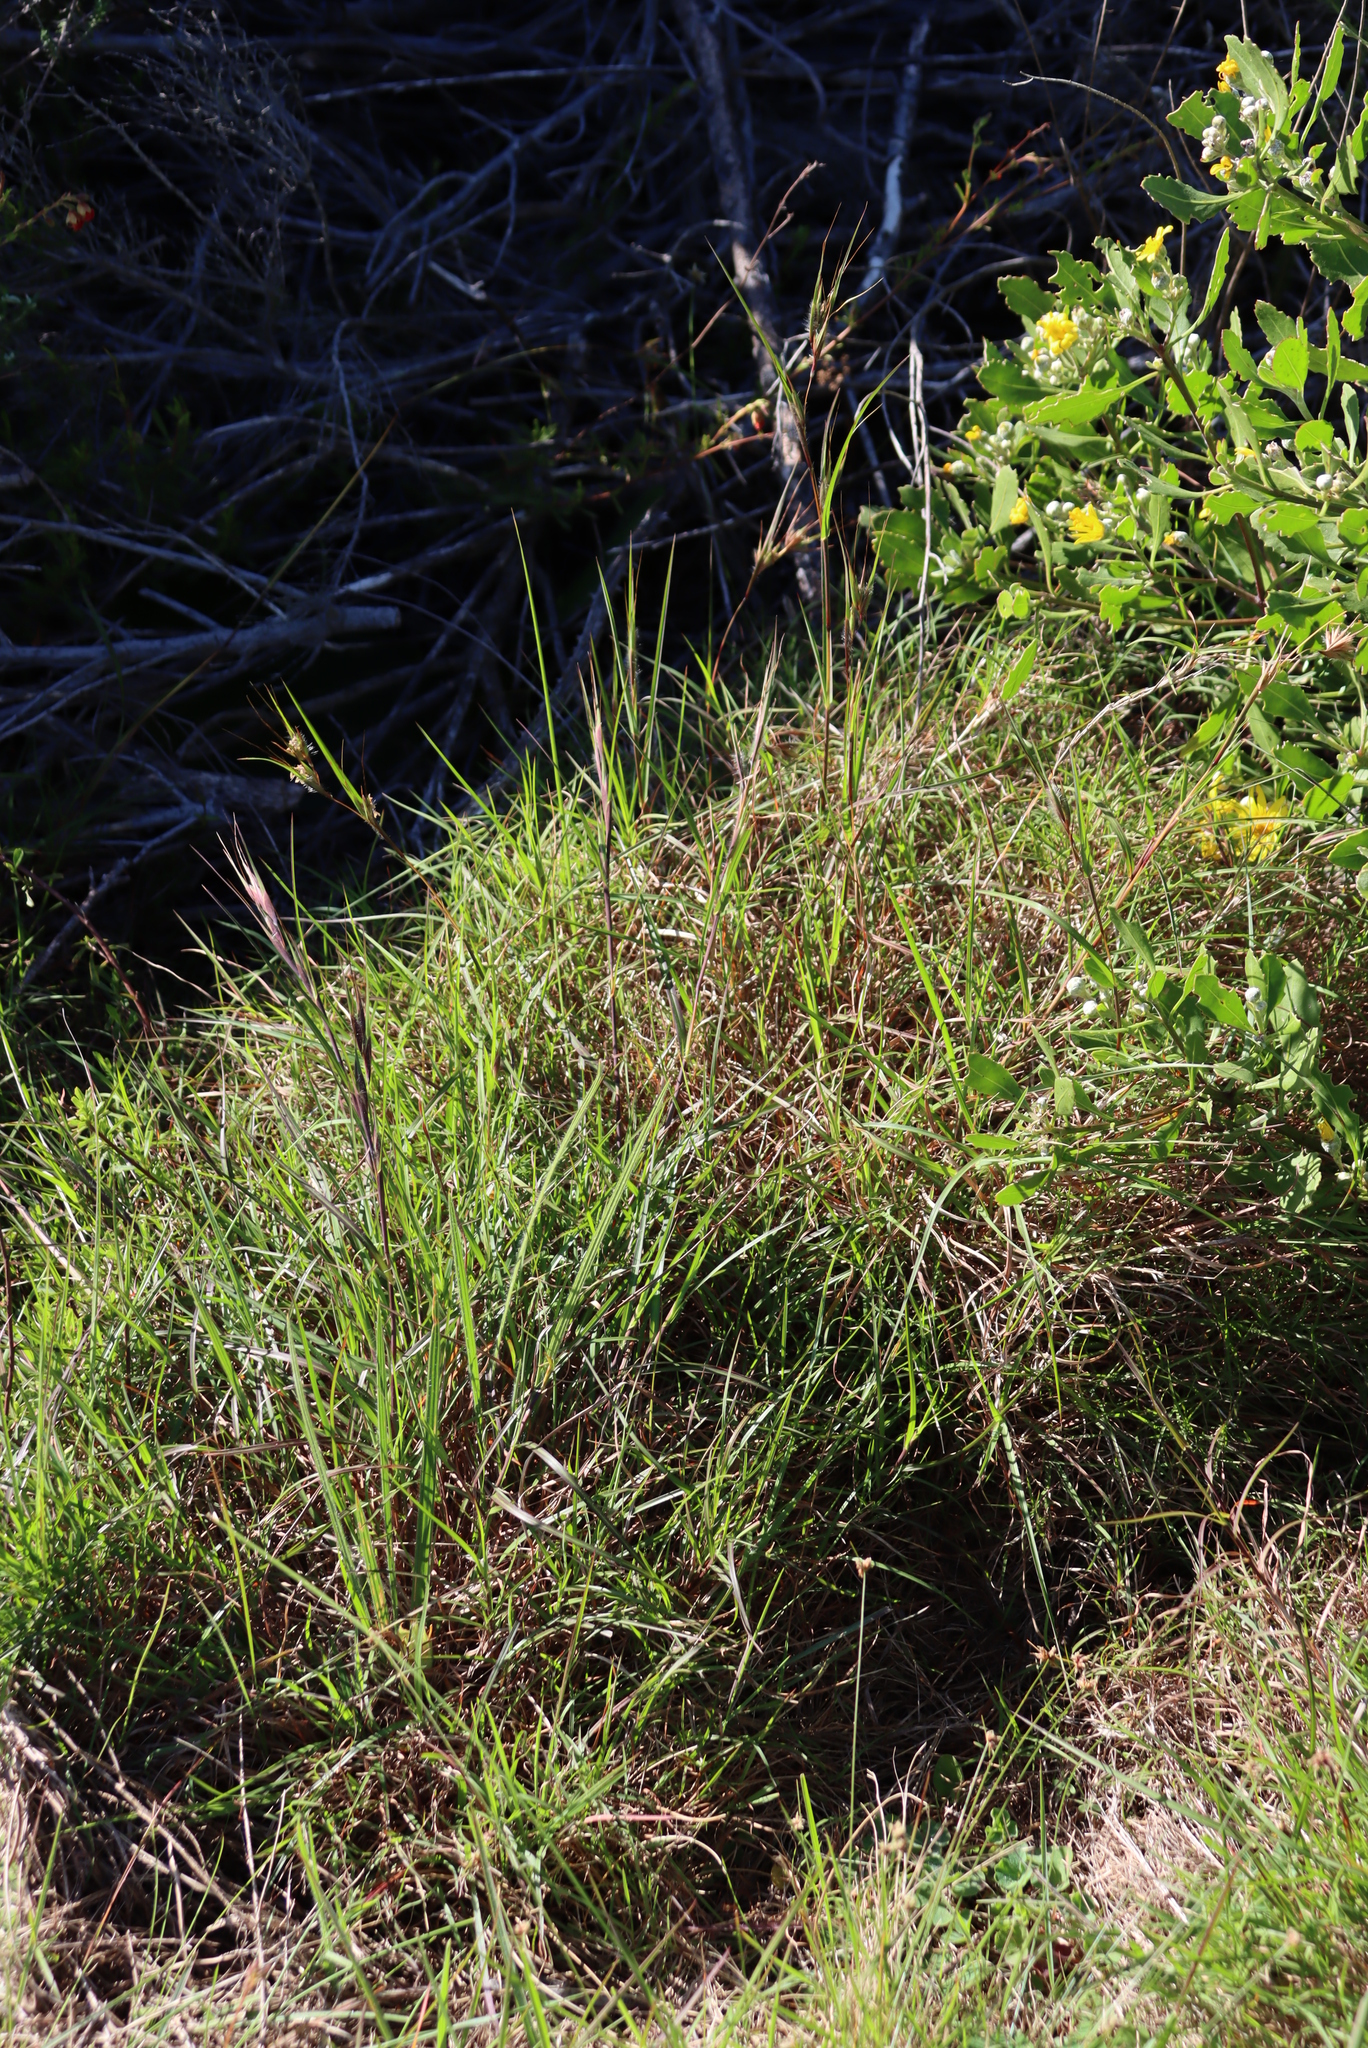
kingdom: Plantae
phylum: Tracheophyta
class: Liliopsida
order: Poales
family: Poaceae
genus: Themeda
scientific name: Themeda triandra
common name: Kangaroo grass
